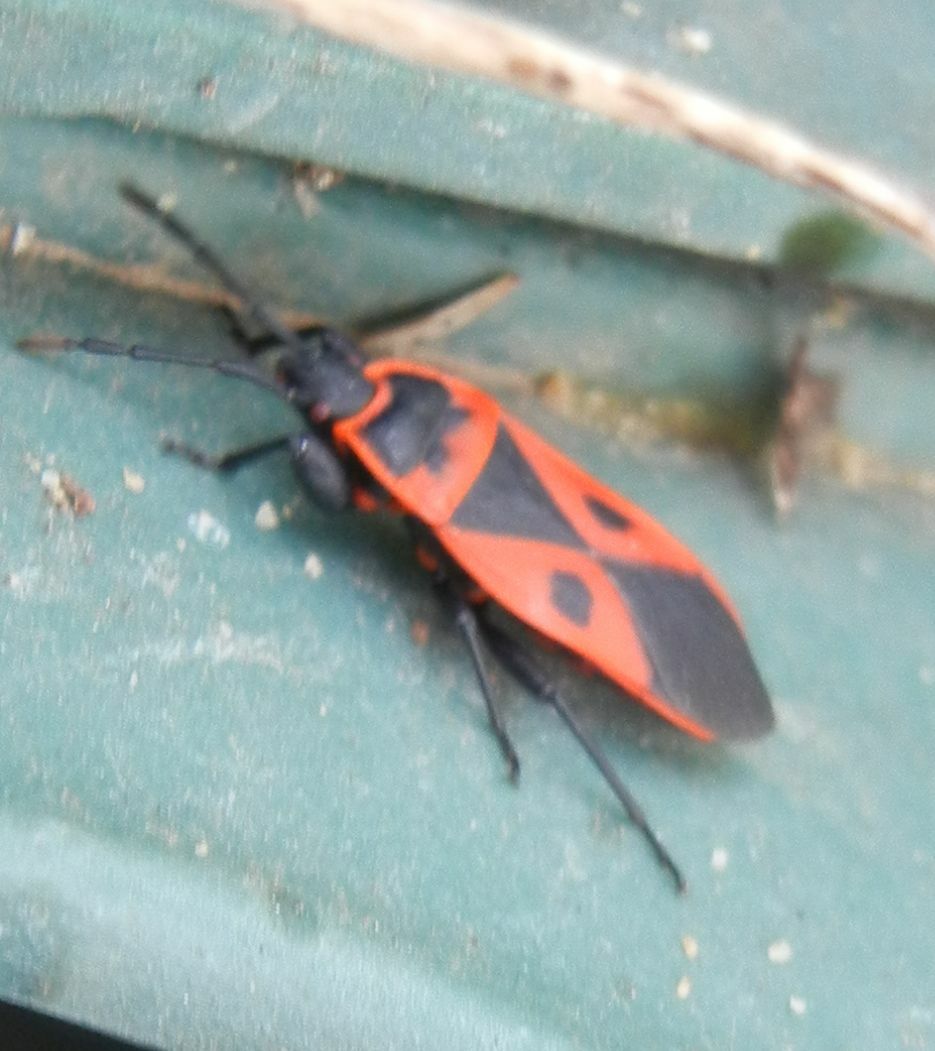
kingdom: Animalia
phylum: Arthropoda
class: Insecta
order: Hemiptera
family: Pyrrhocoridae
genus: Scantius
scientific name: Scantius aegyptius
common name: Red bug
